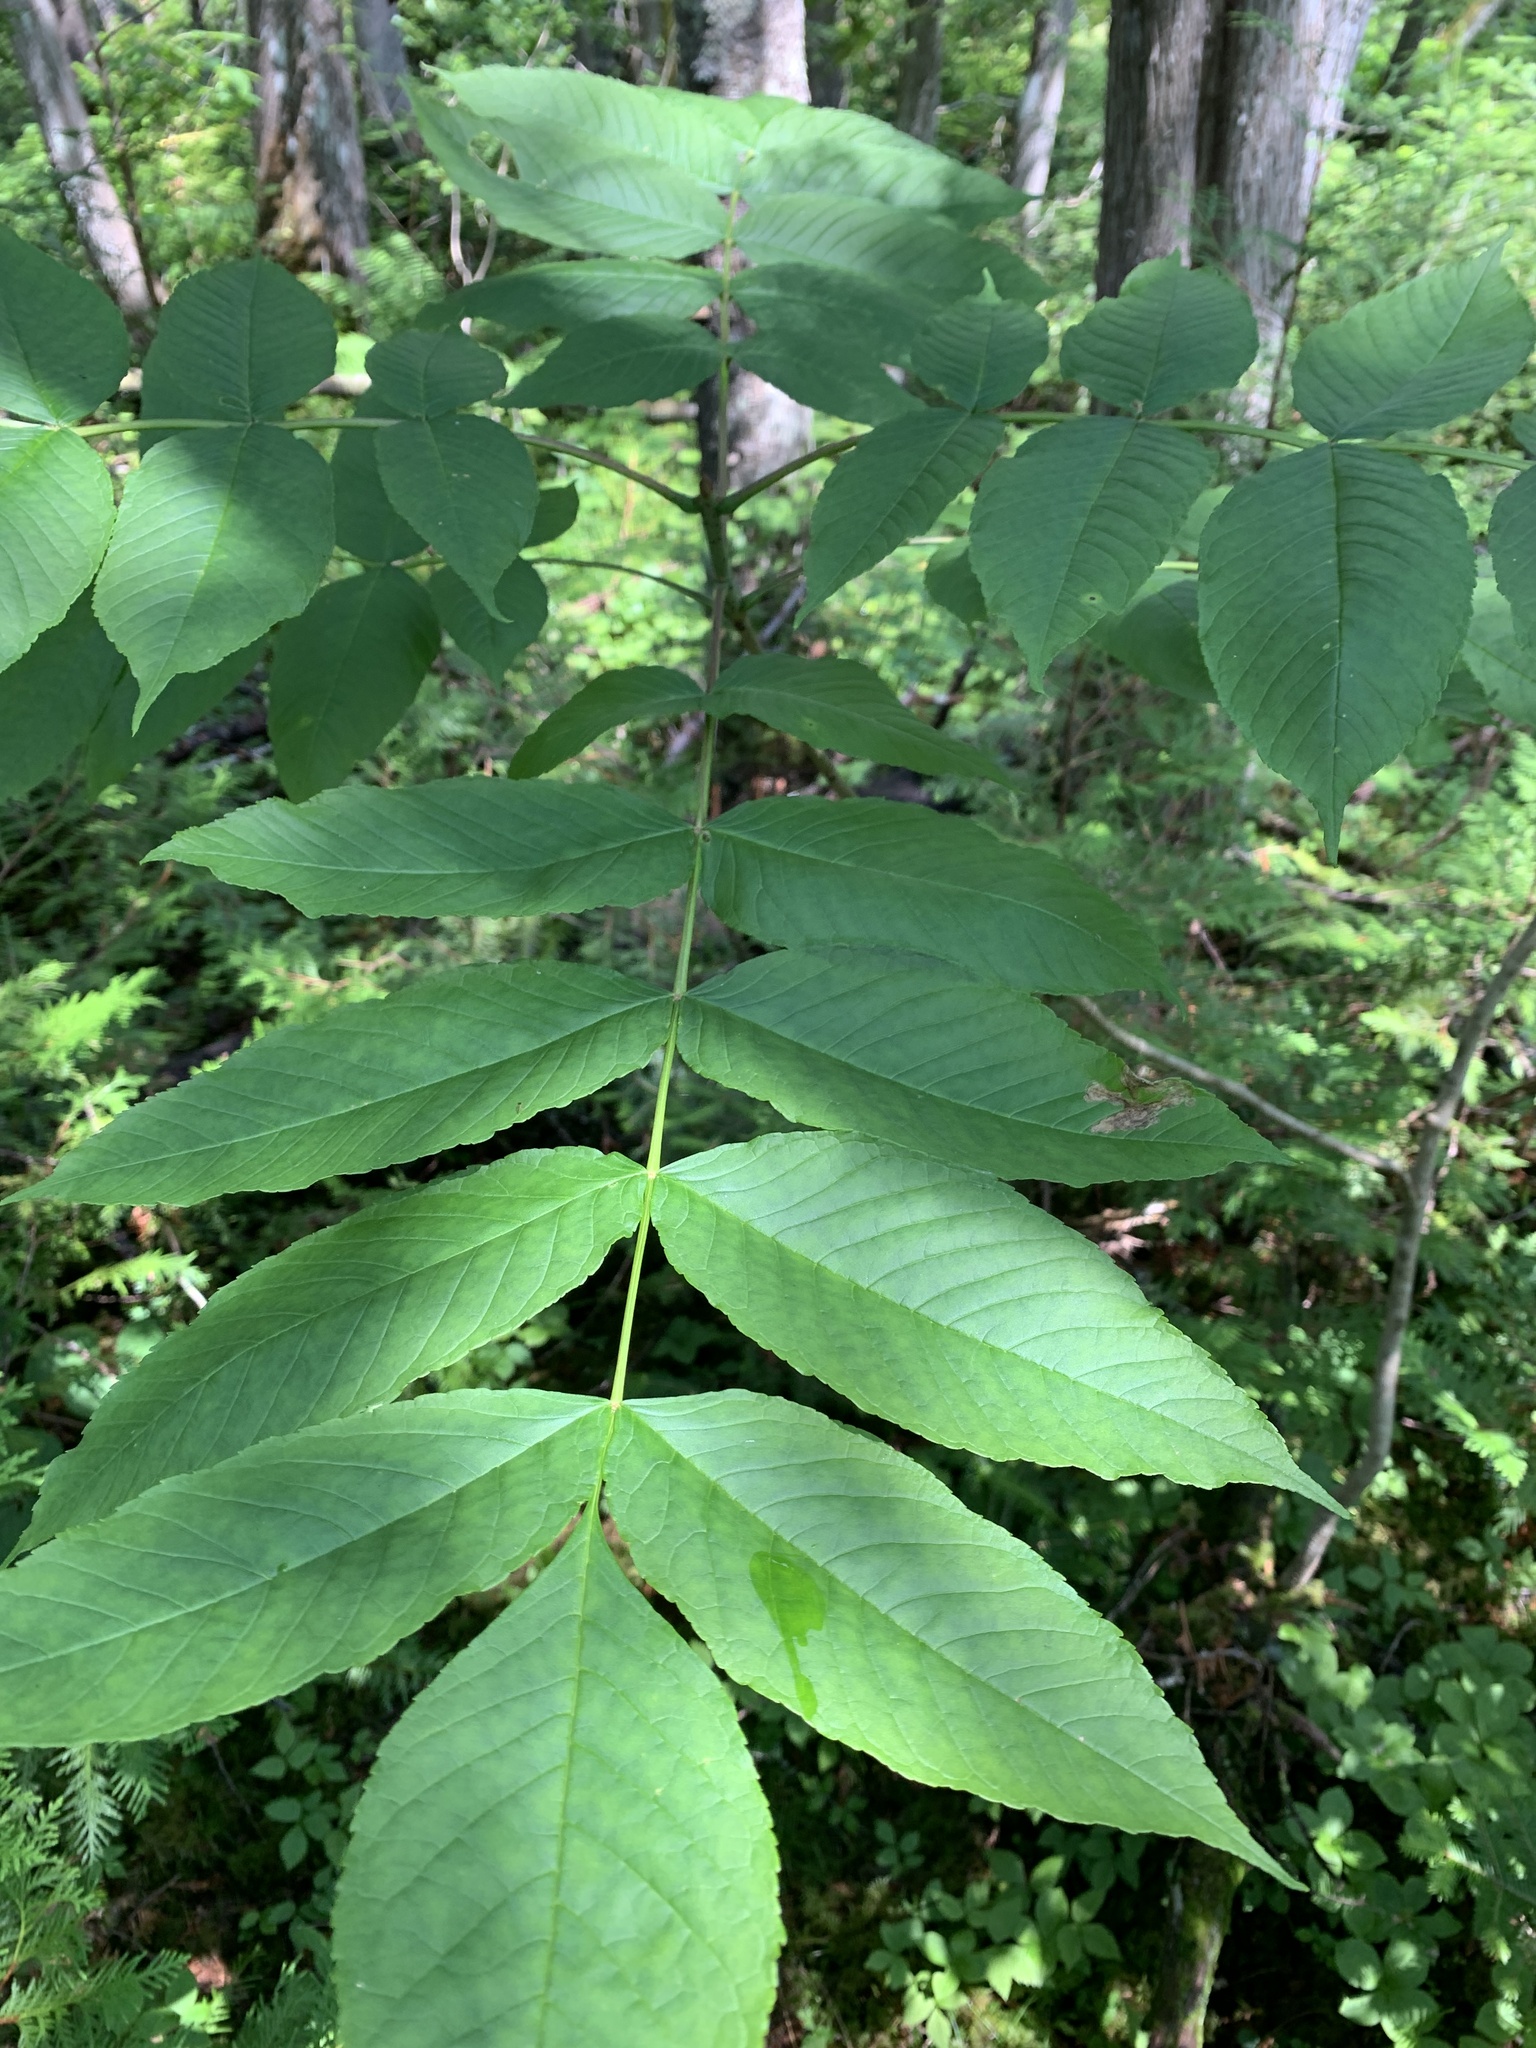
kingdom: Plantae
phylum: Tracheophyta
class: Magnoliopsida
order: Lamiales
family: Oleaceae
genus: Fraxinus
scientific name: Fraxinus nigra
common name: Black ash
